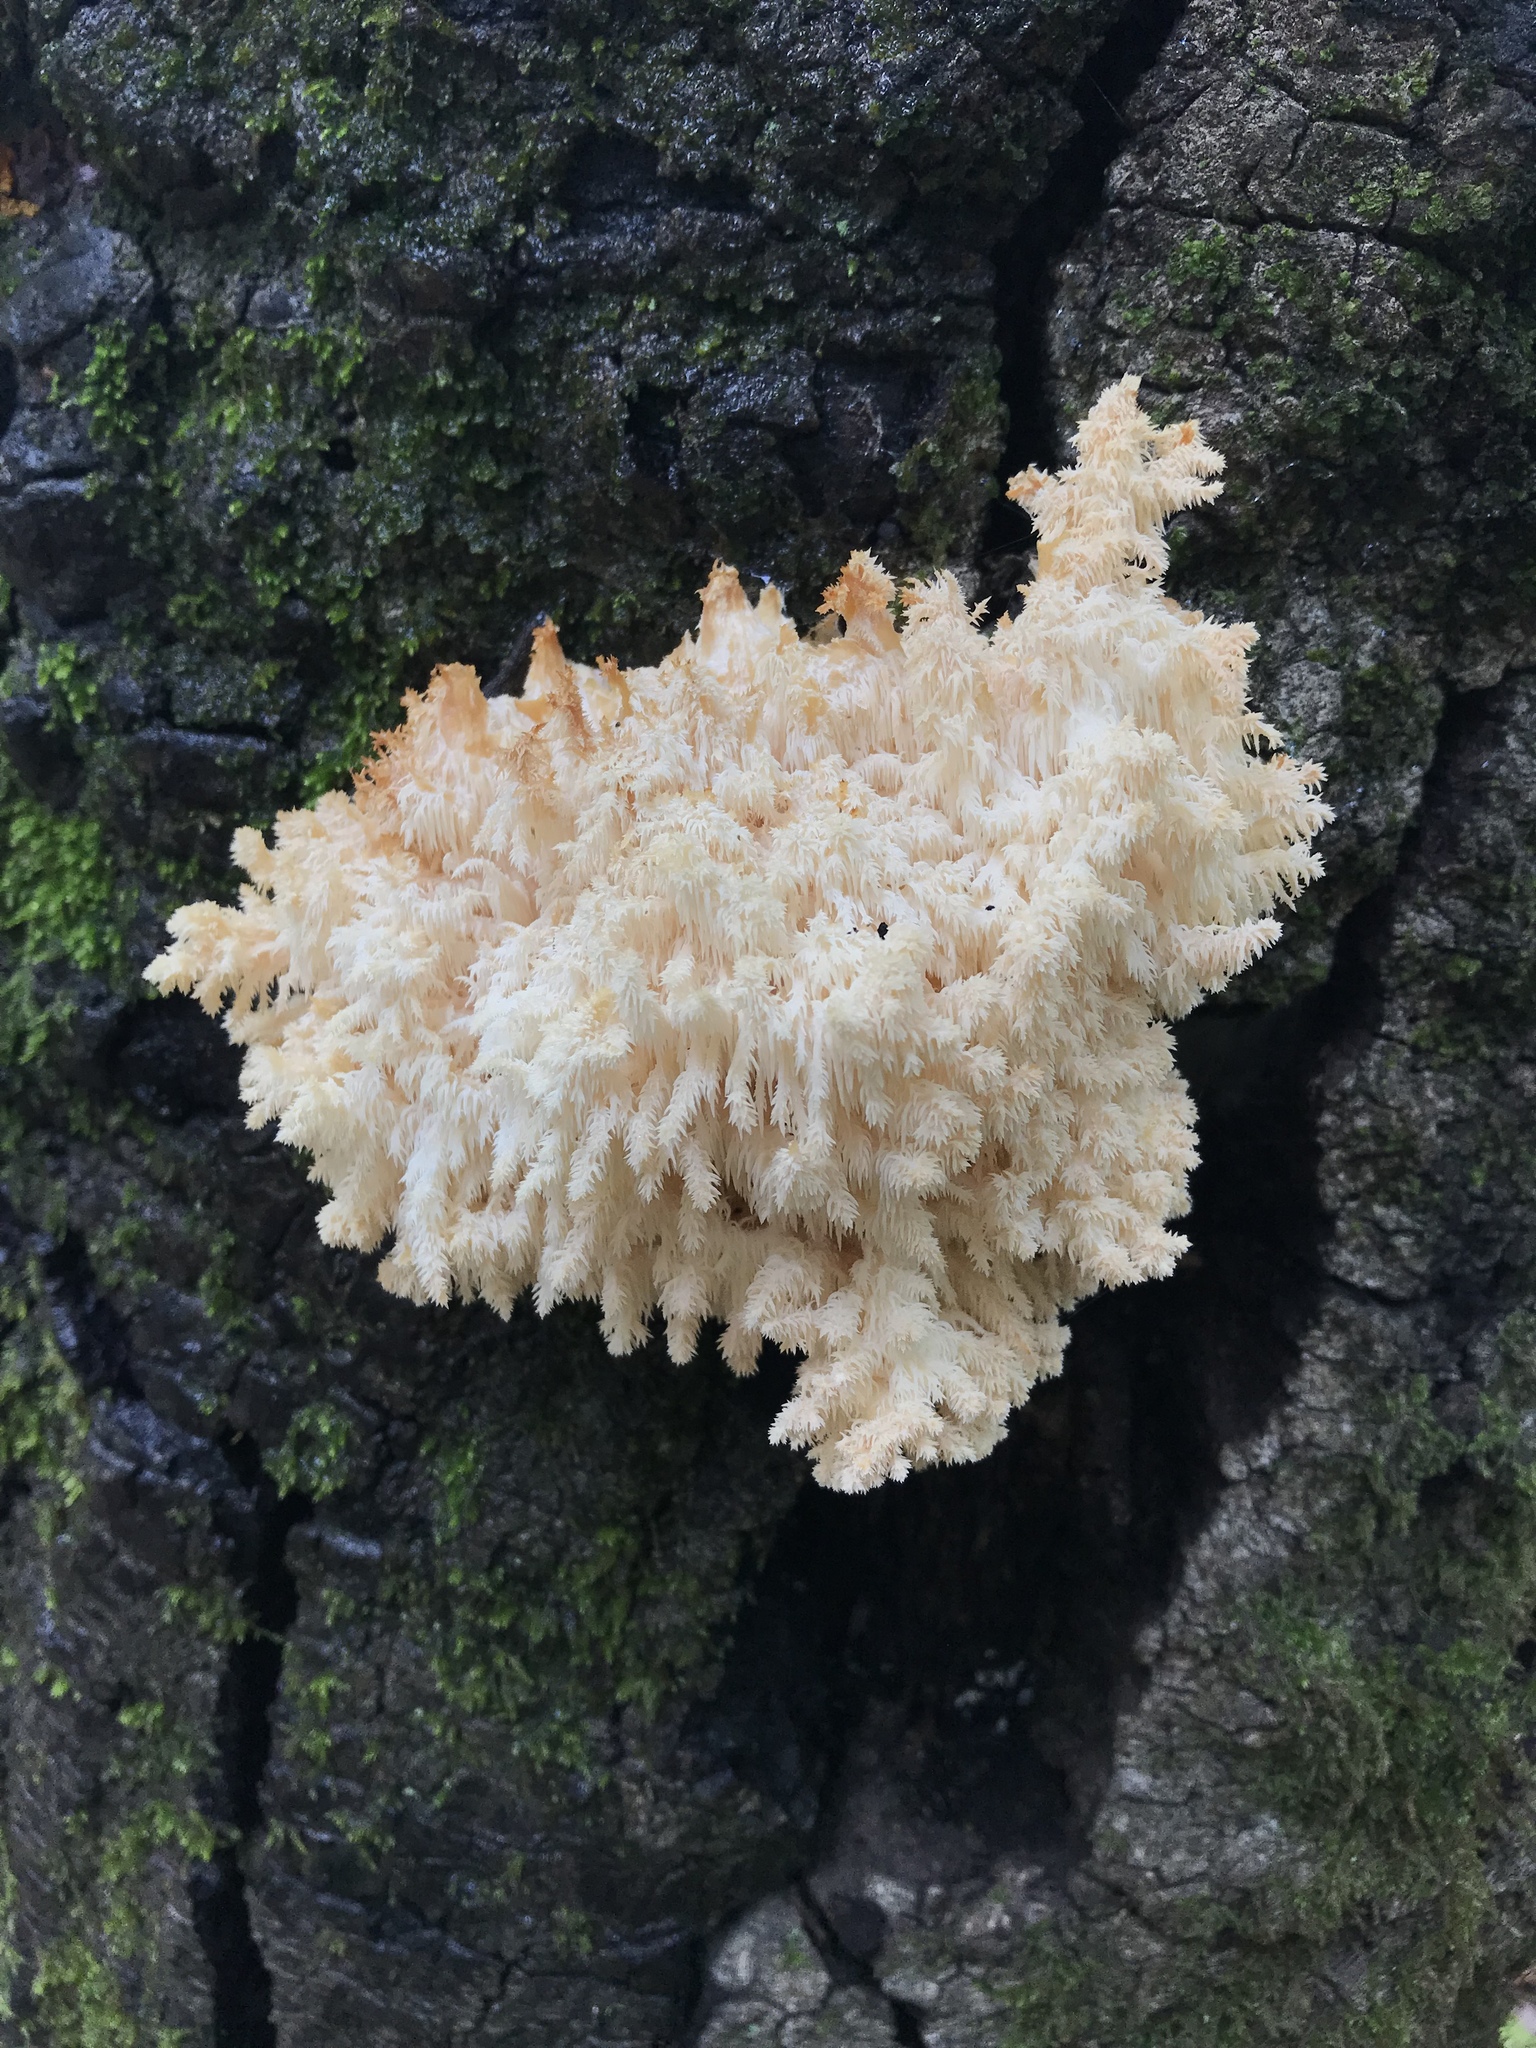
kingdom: Fungi
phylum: Basidiomycota
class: Agaricomycetes
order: Russulales
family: Hericiaceae
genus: Hericium
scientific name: Hericium coralloides
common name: Coral tooth
